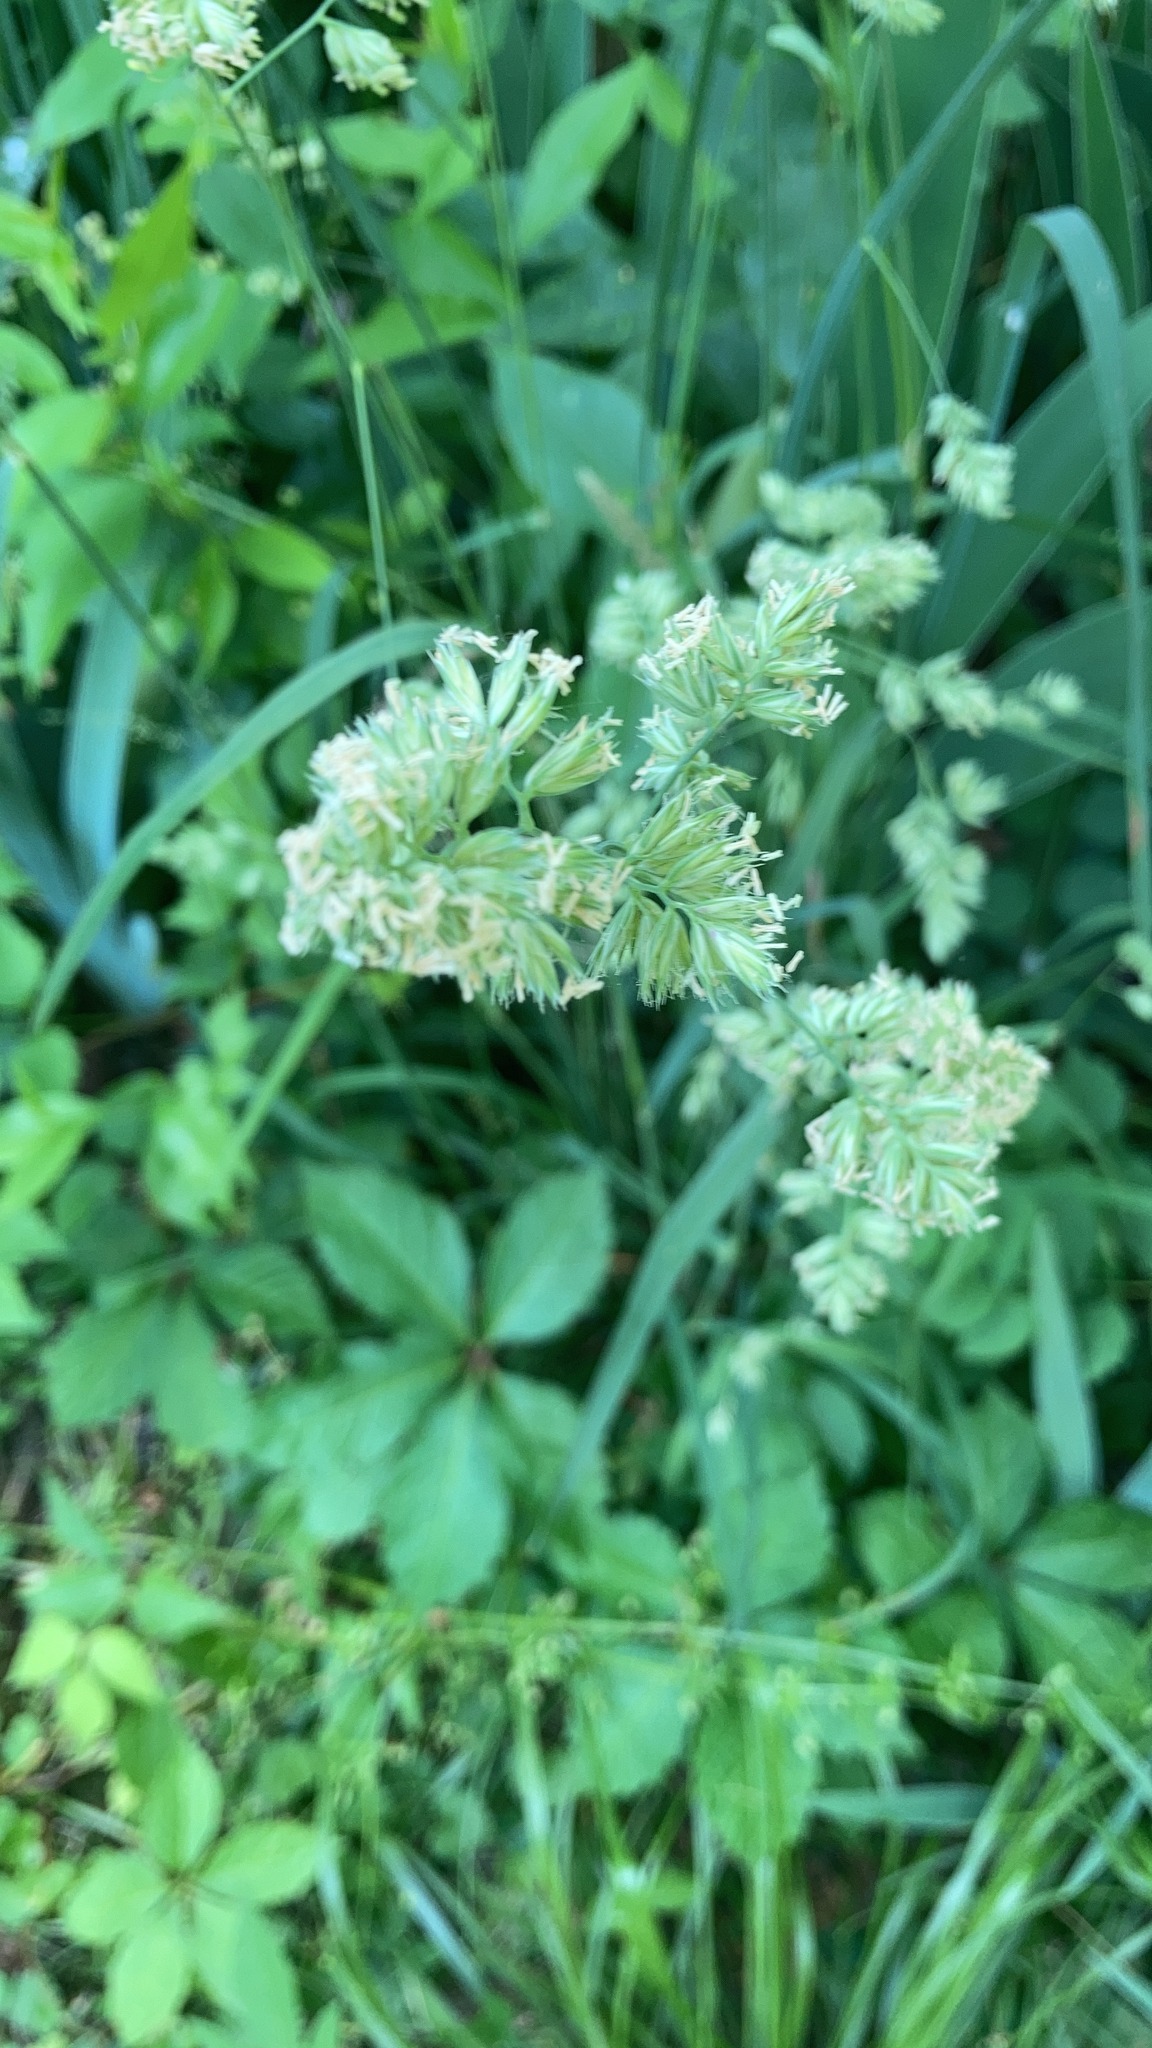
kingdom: Plantae
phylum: Tracheophyta
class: Liliopsida
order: Poales
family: Poaceae
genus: Dactylis
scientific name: Dactylis glomerata
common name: Orchardgrass
